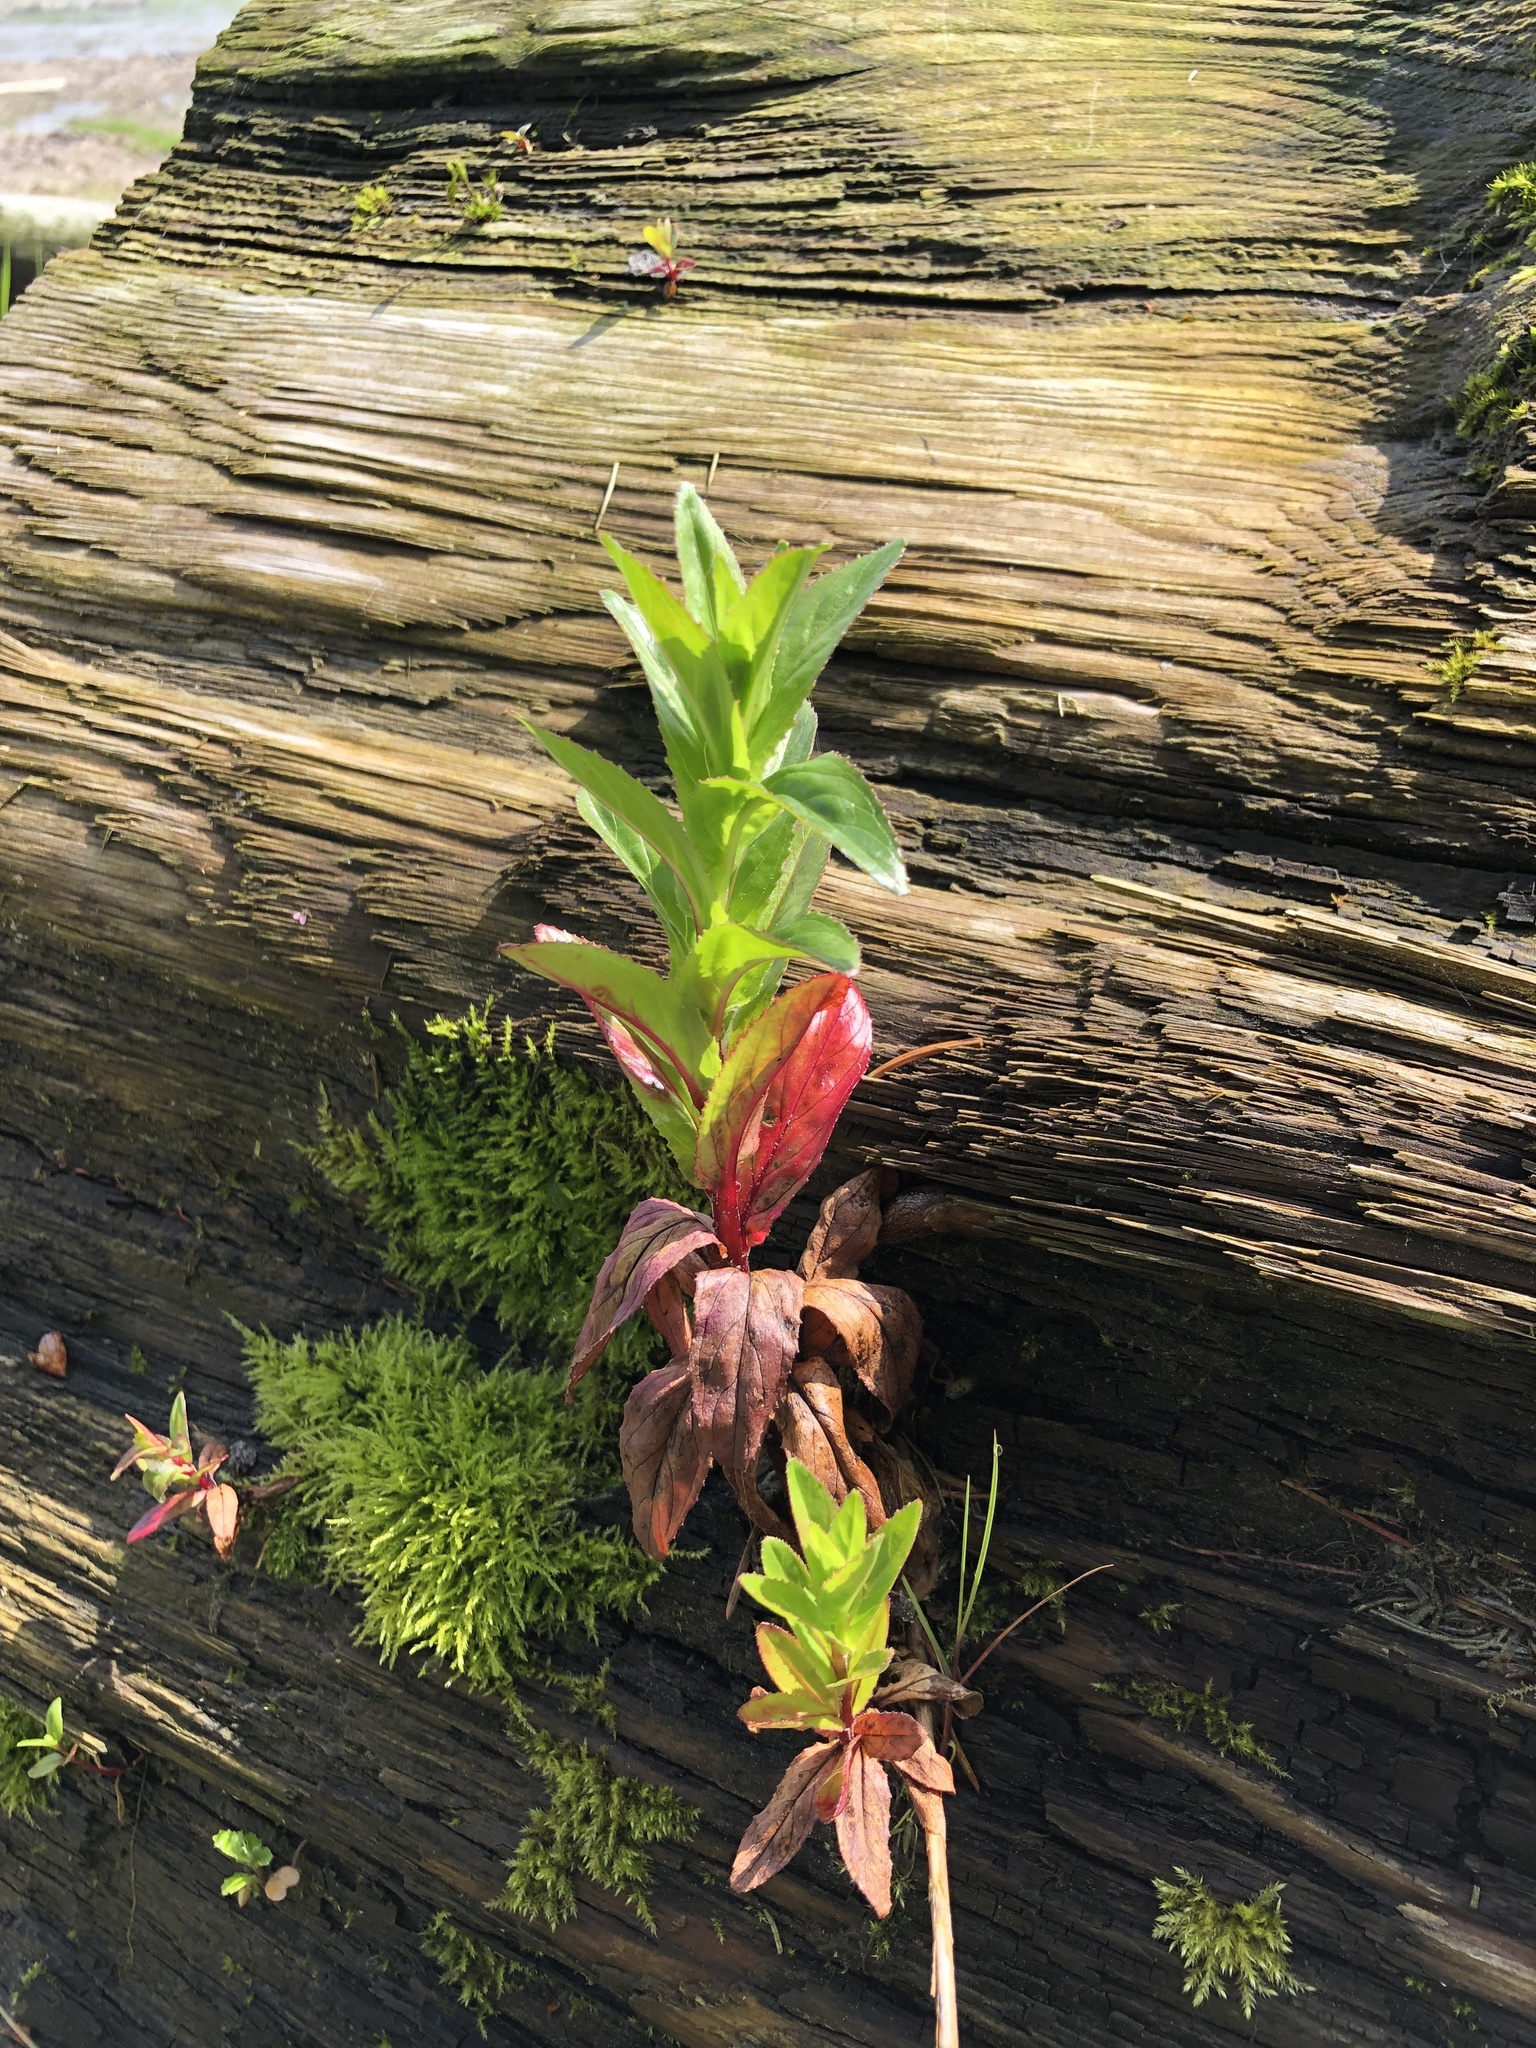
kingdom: Plantae
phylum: Tracheophyta
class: Magnoliopsida
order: Myrtales
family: Onagraceae
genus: Epilobium
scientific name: Epilobium ciliatum
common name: American willowherb
